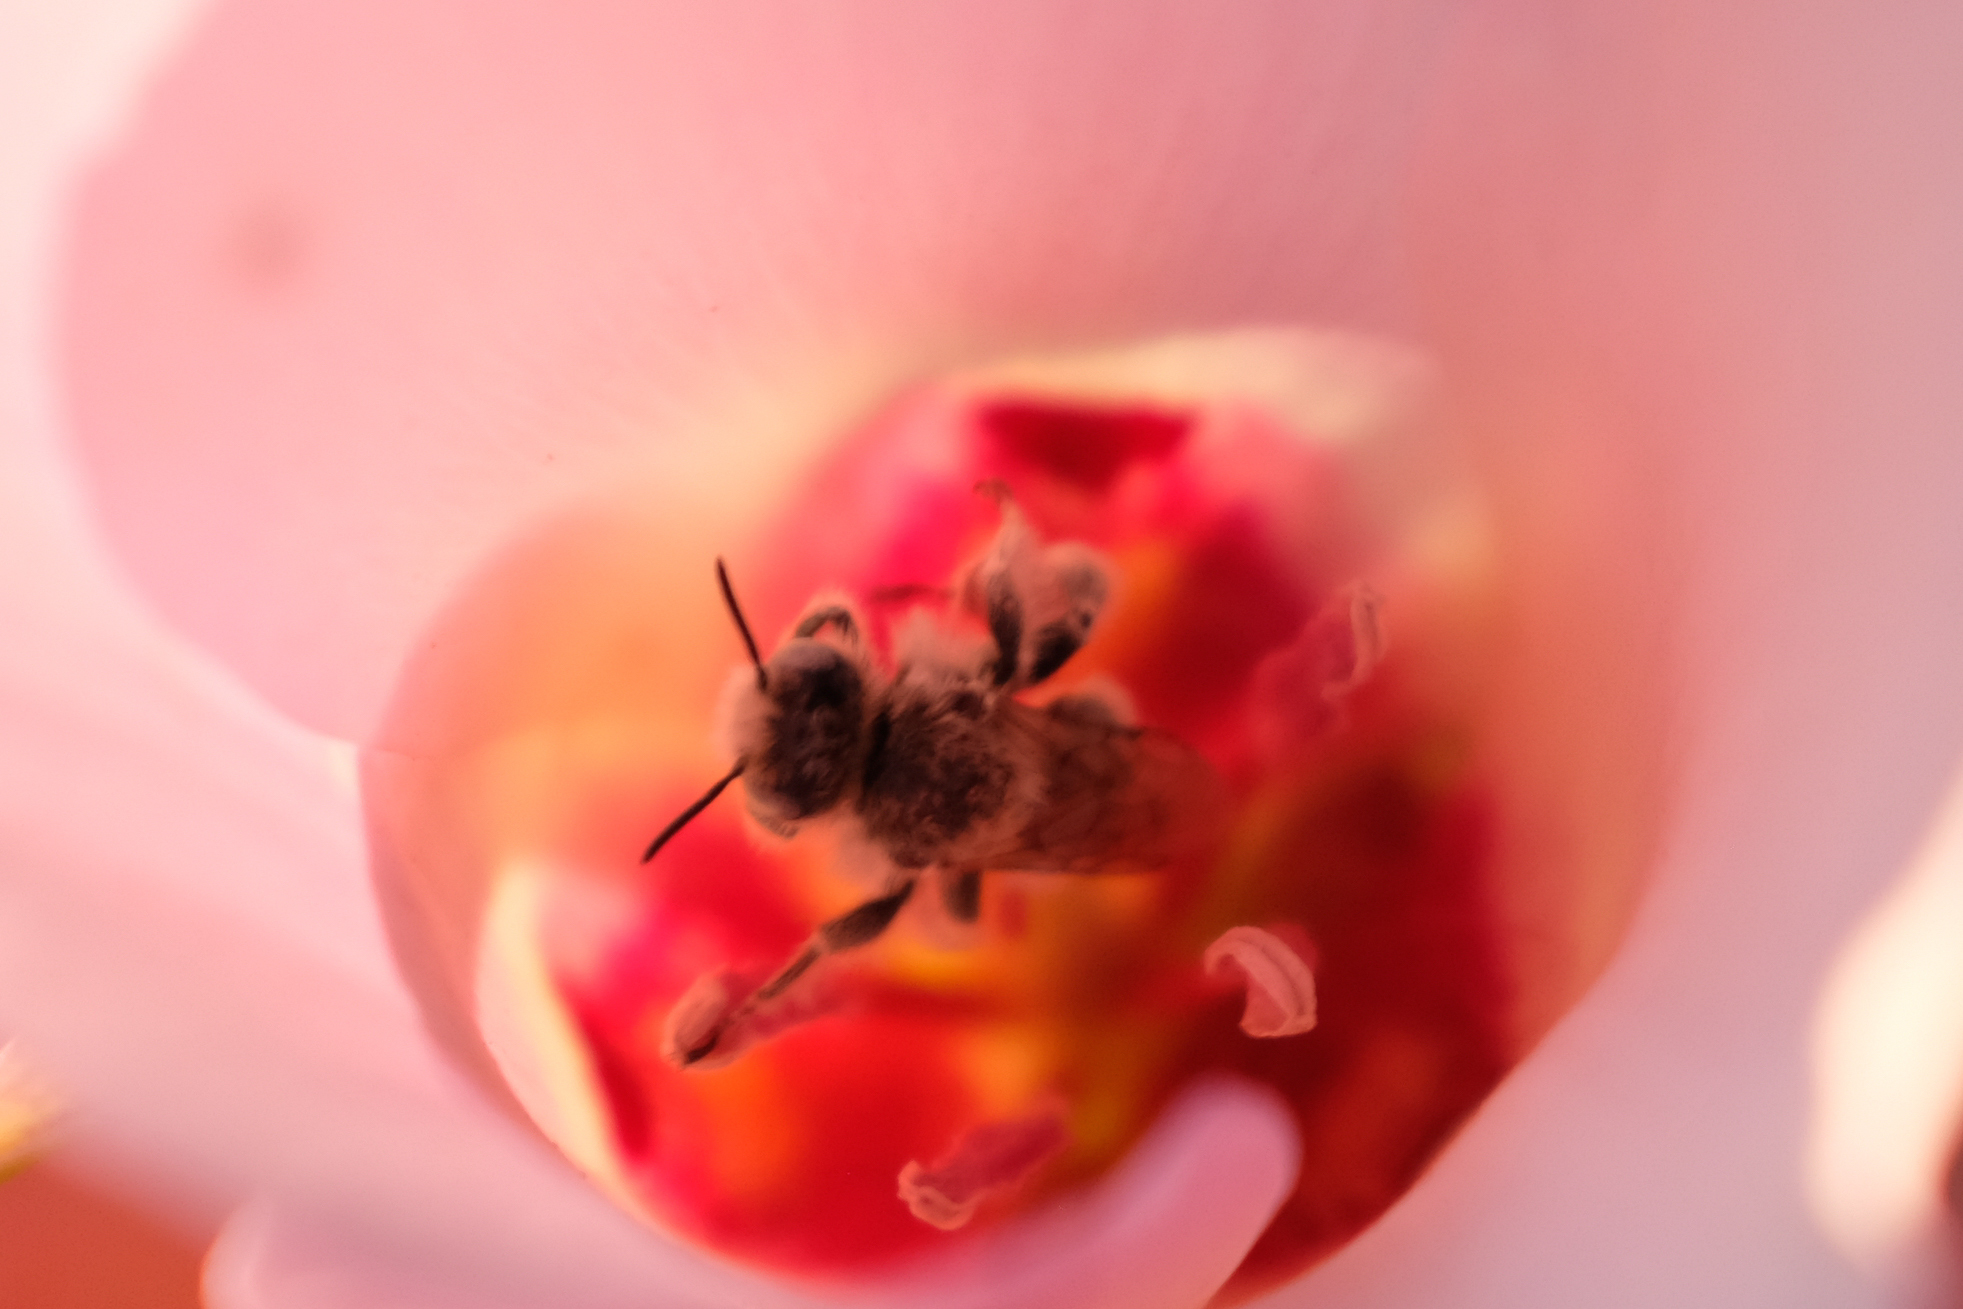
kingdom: Animalia
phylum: Arthropoda
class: Insecta
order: Hymenoptera
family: Apidae
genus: Diadasia
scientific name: Diadasia
